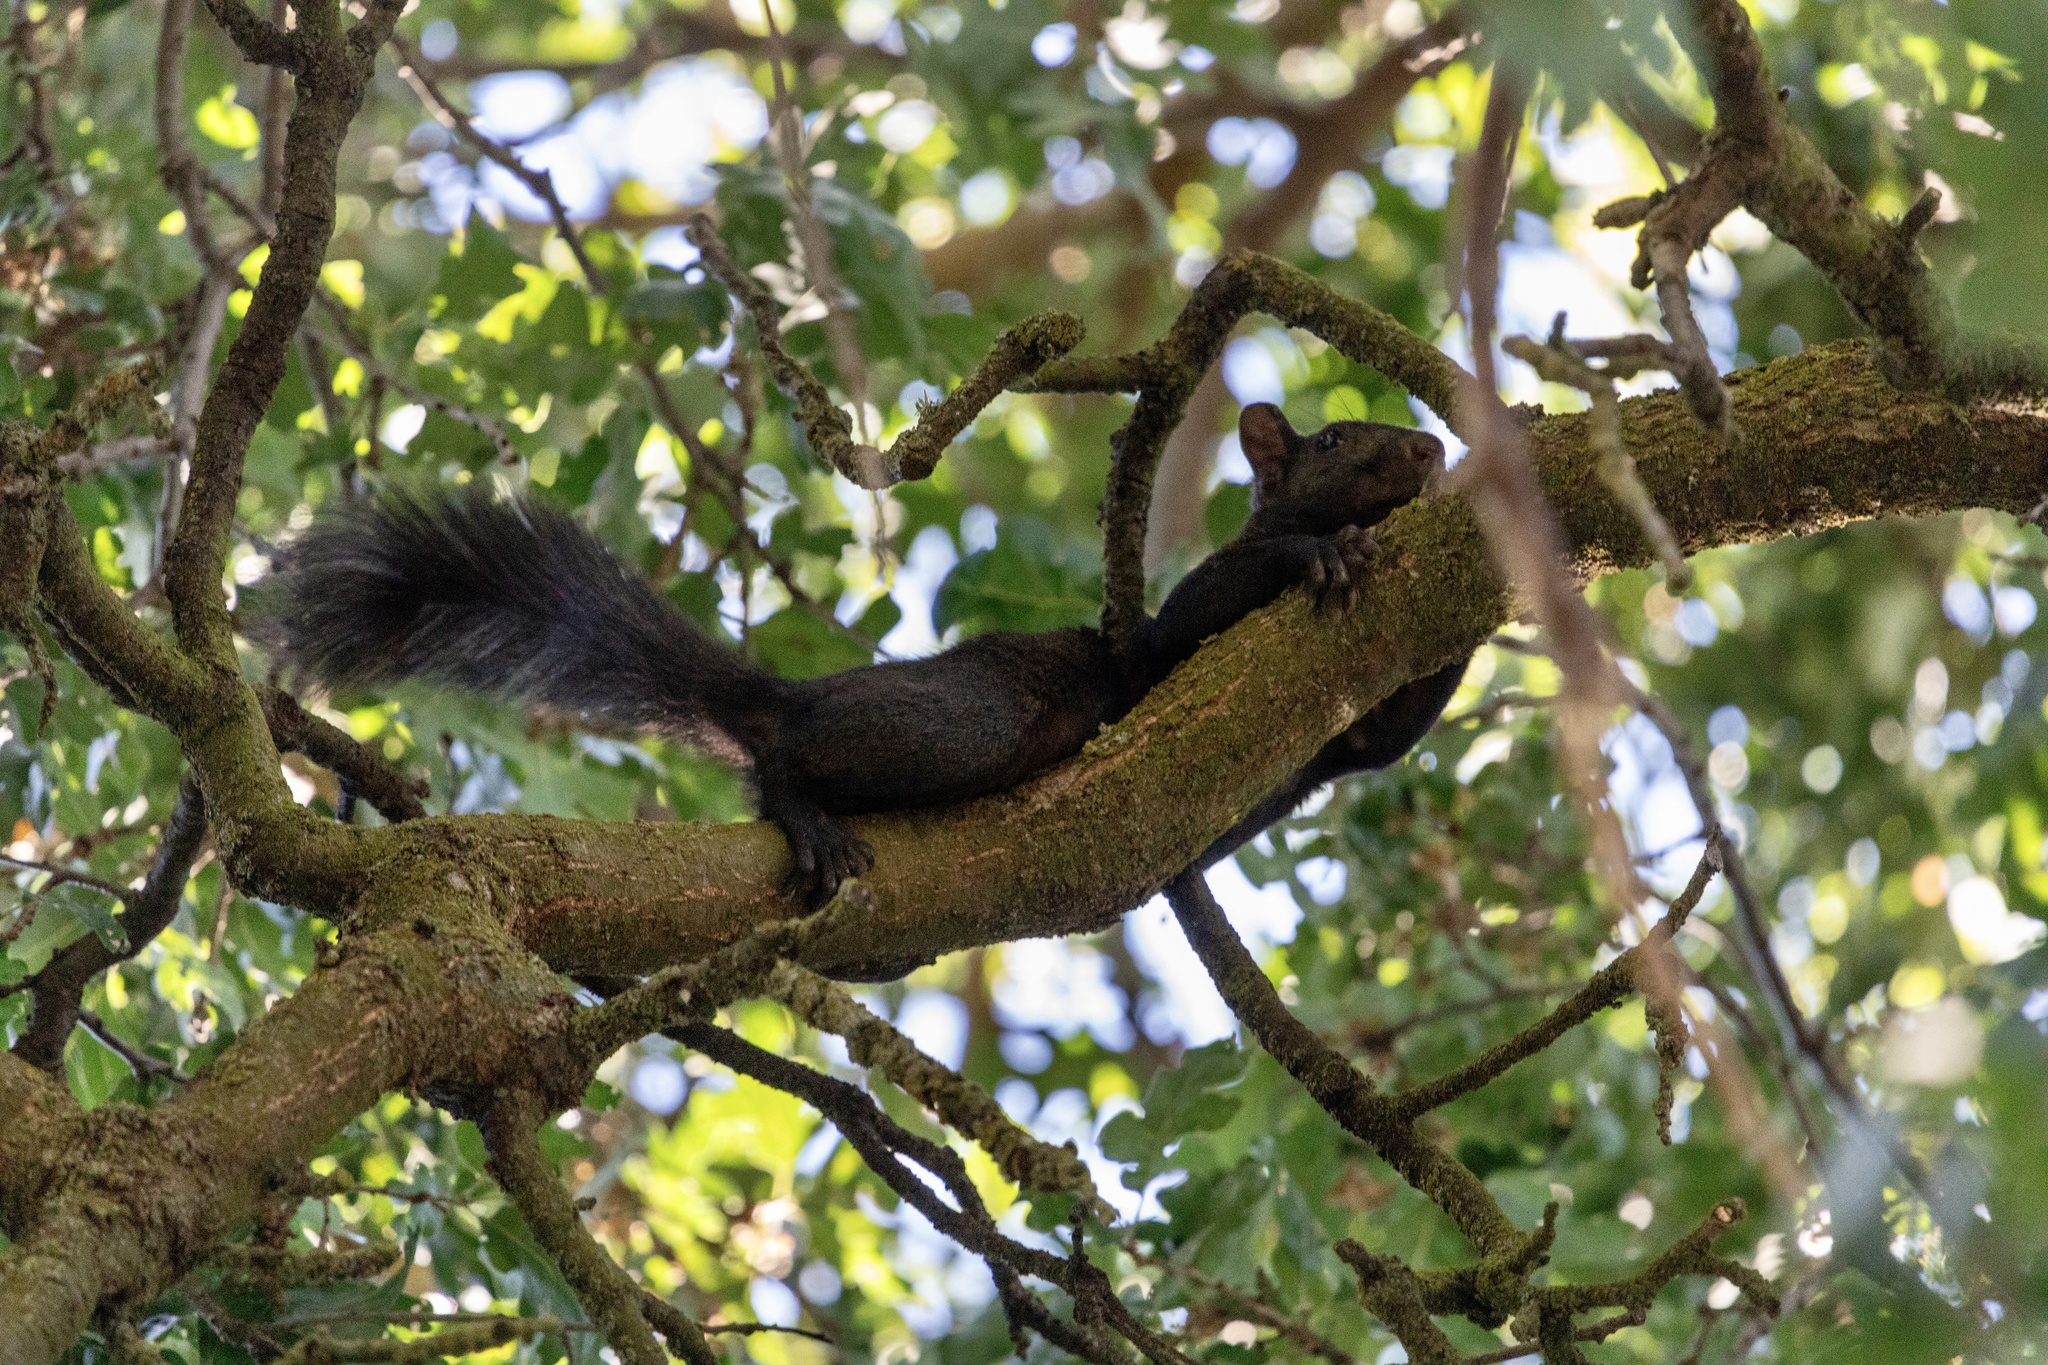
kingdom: Animalia
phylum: Chordata
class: Mammalia
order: Rodentia
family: Sciuridae
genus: Sciurus
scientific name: Sciurus carolinensis
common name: Eastern gray squirrel
